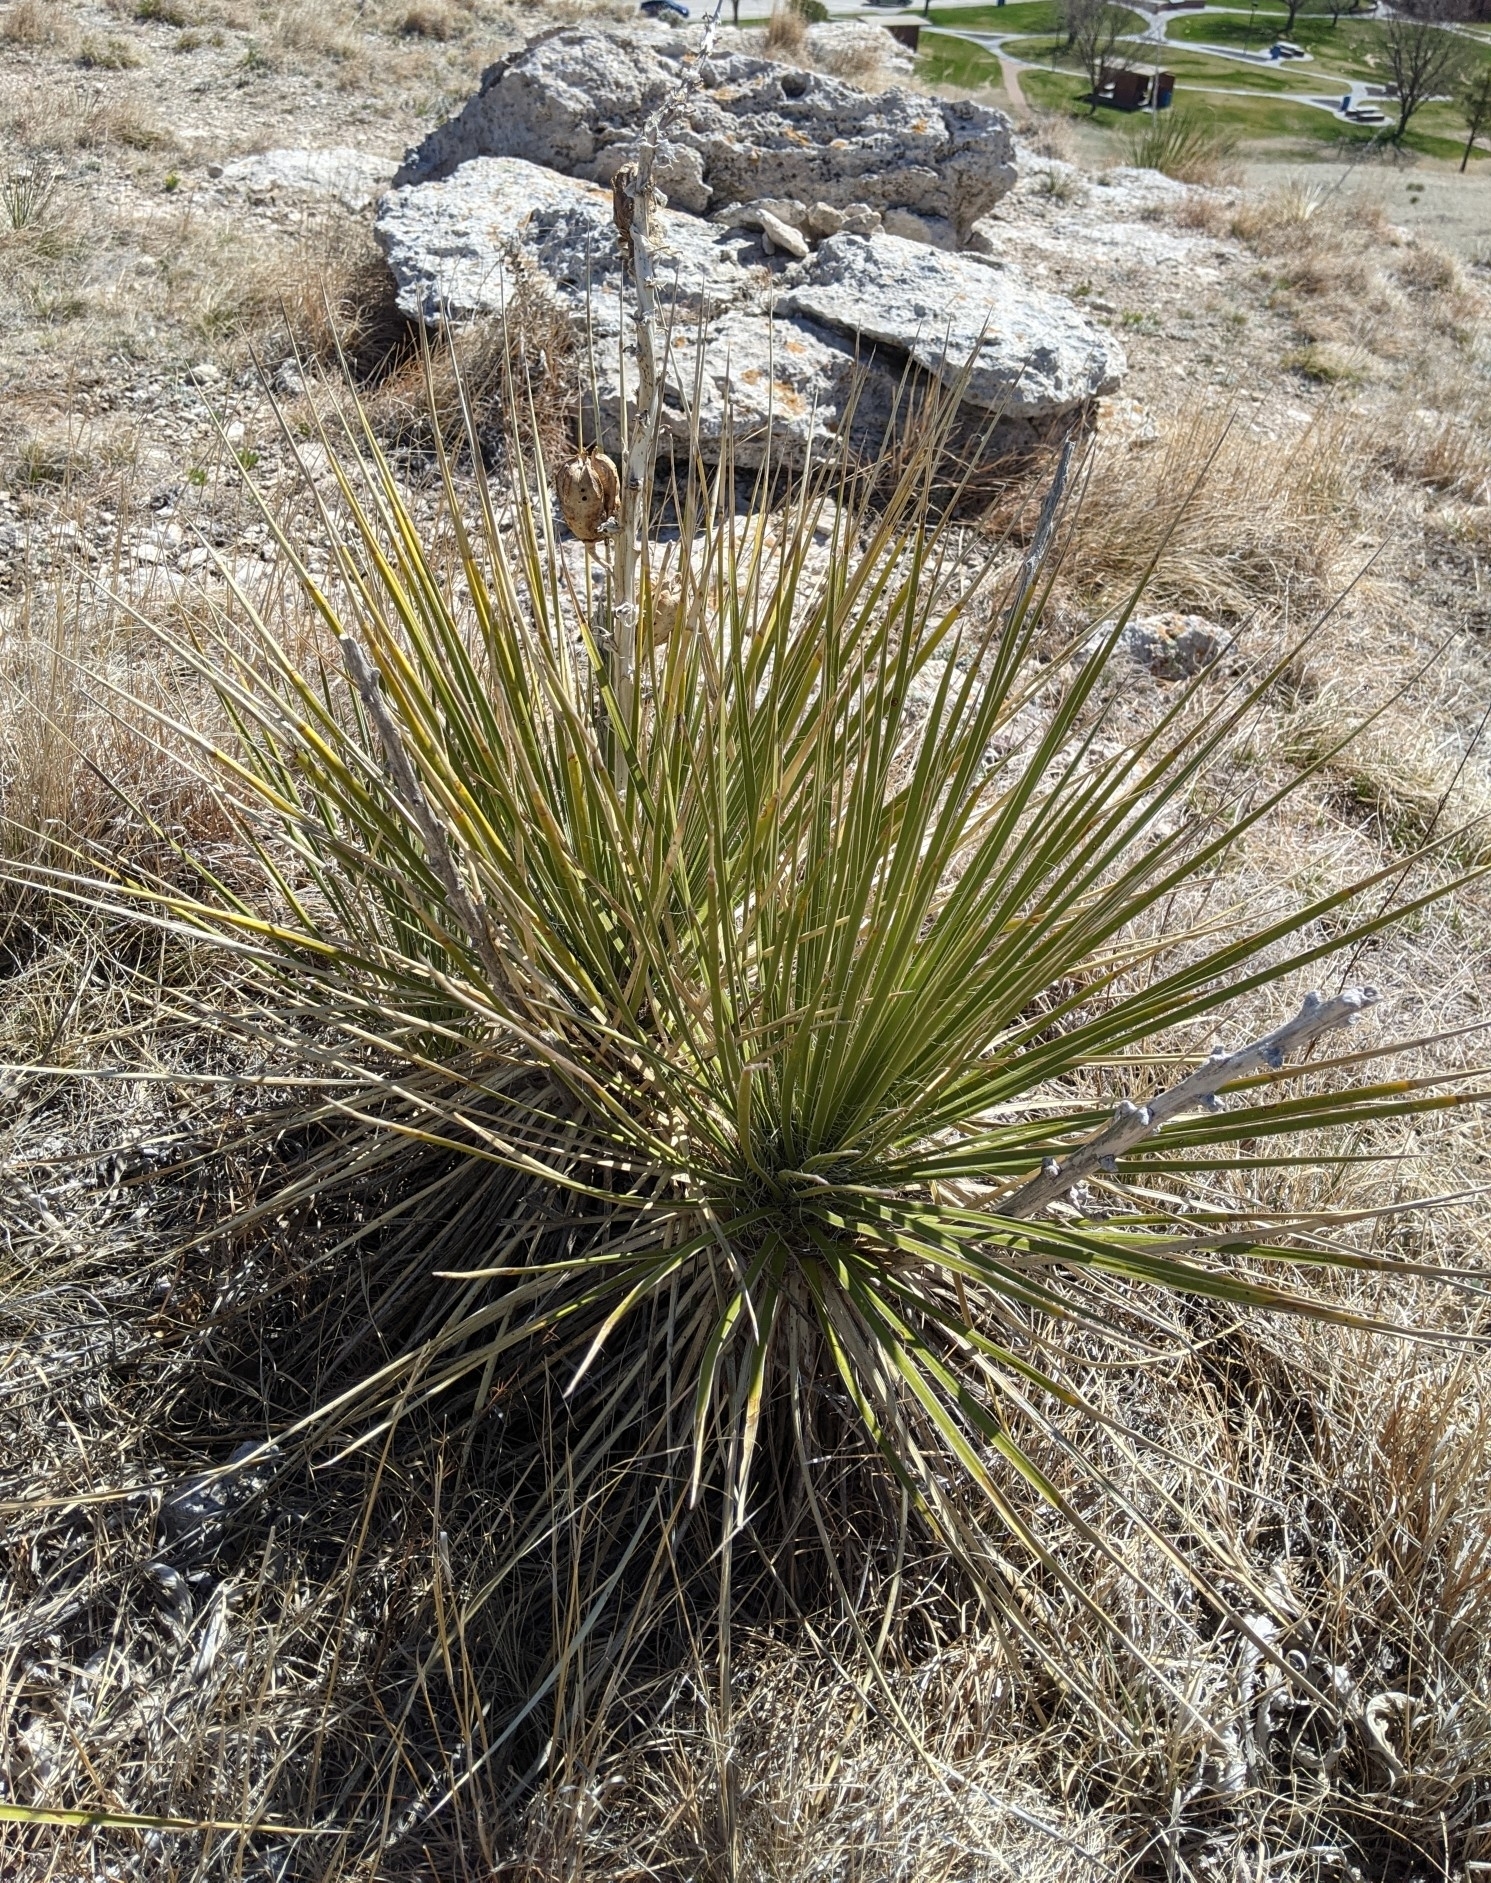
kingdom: Plantae
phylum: Tracheophyta
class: Liliopsida
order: Asparagales
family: Asparagaceae
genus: Yucca
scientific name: Yucca glauca
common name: Great plains yucca
